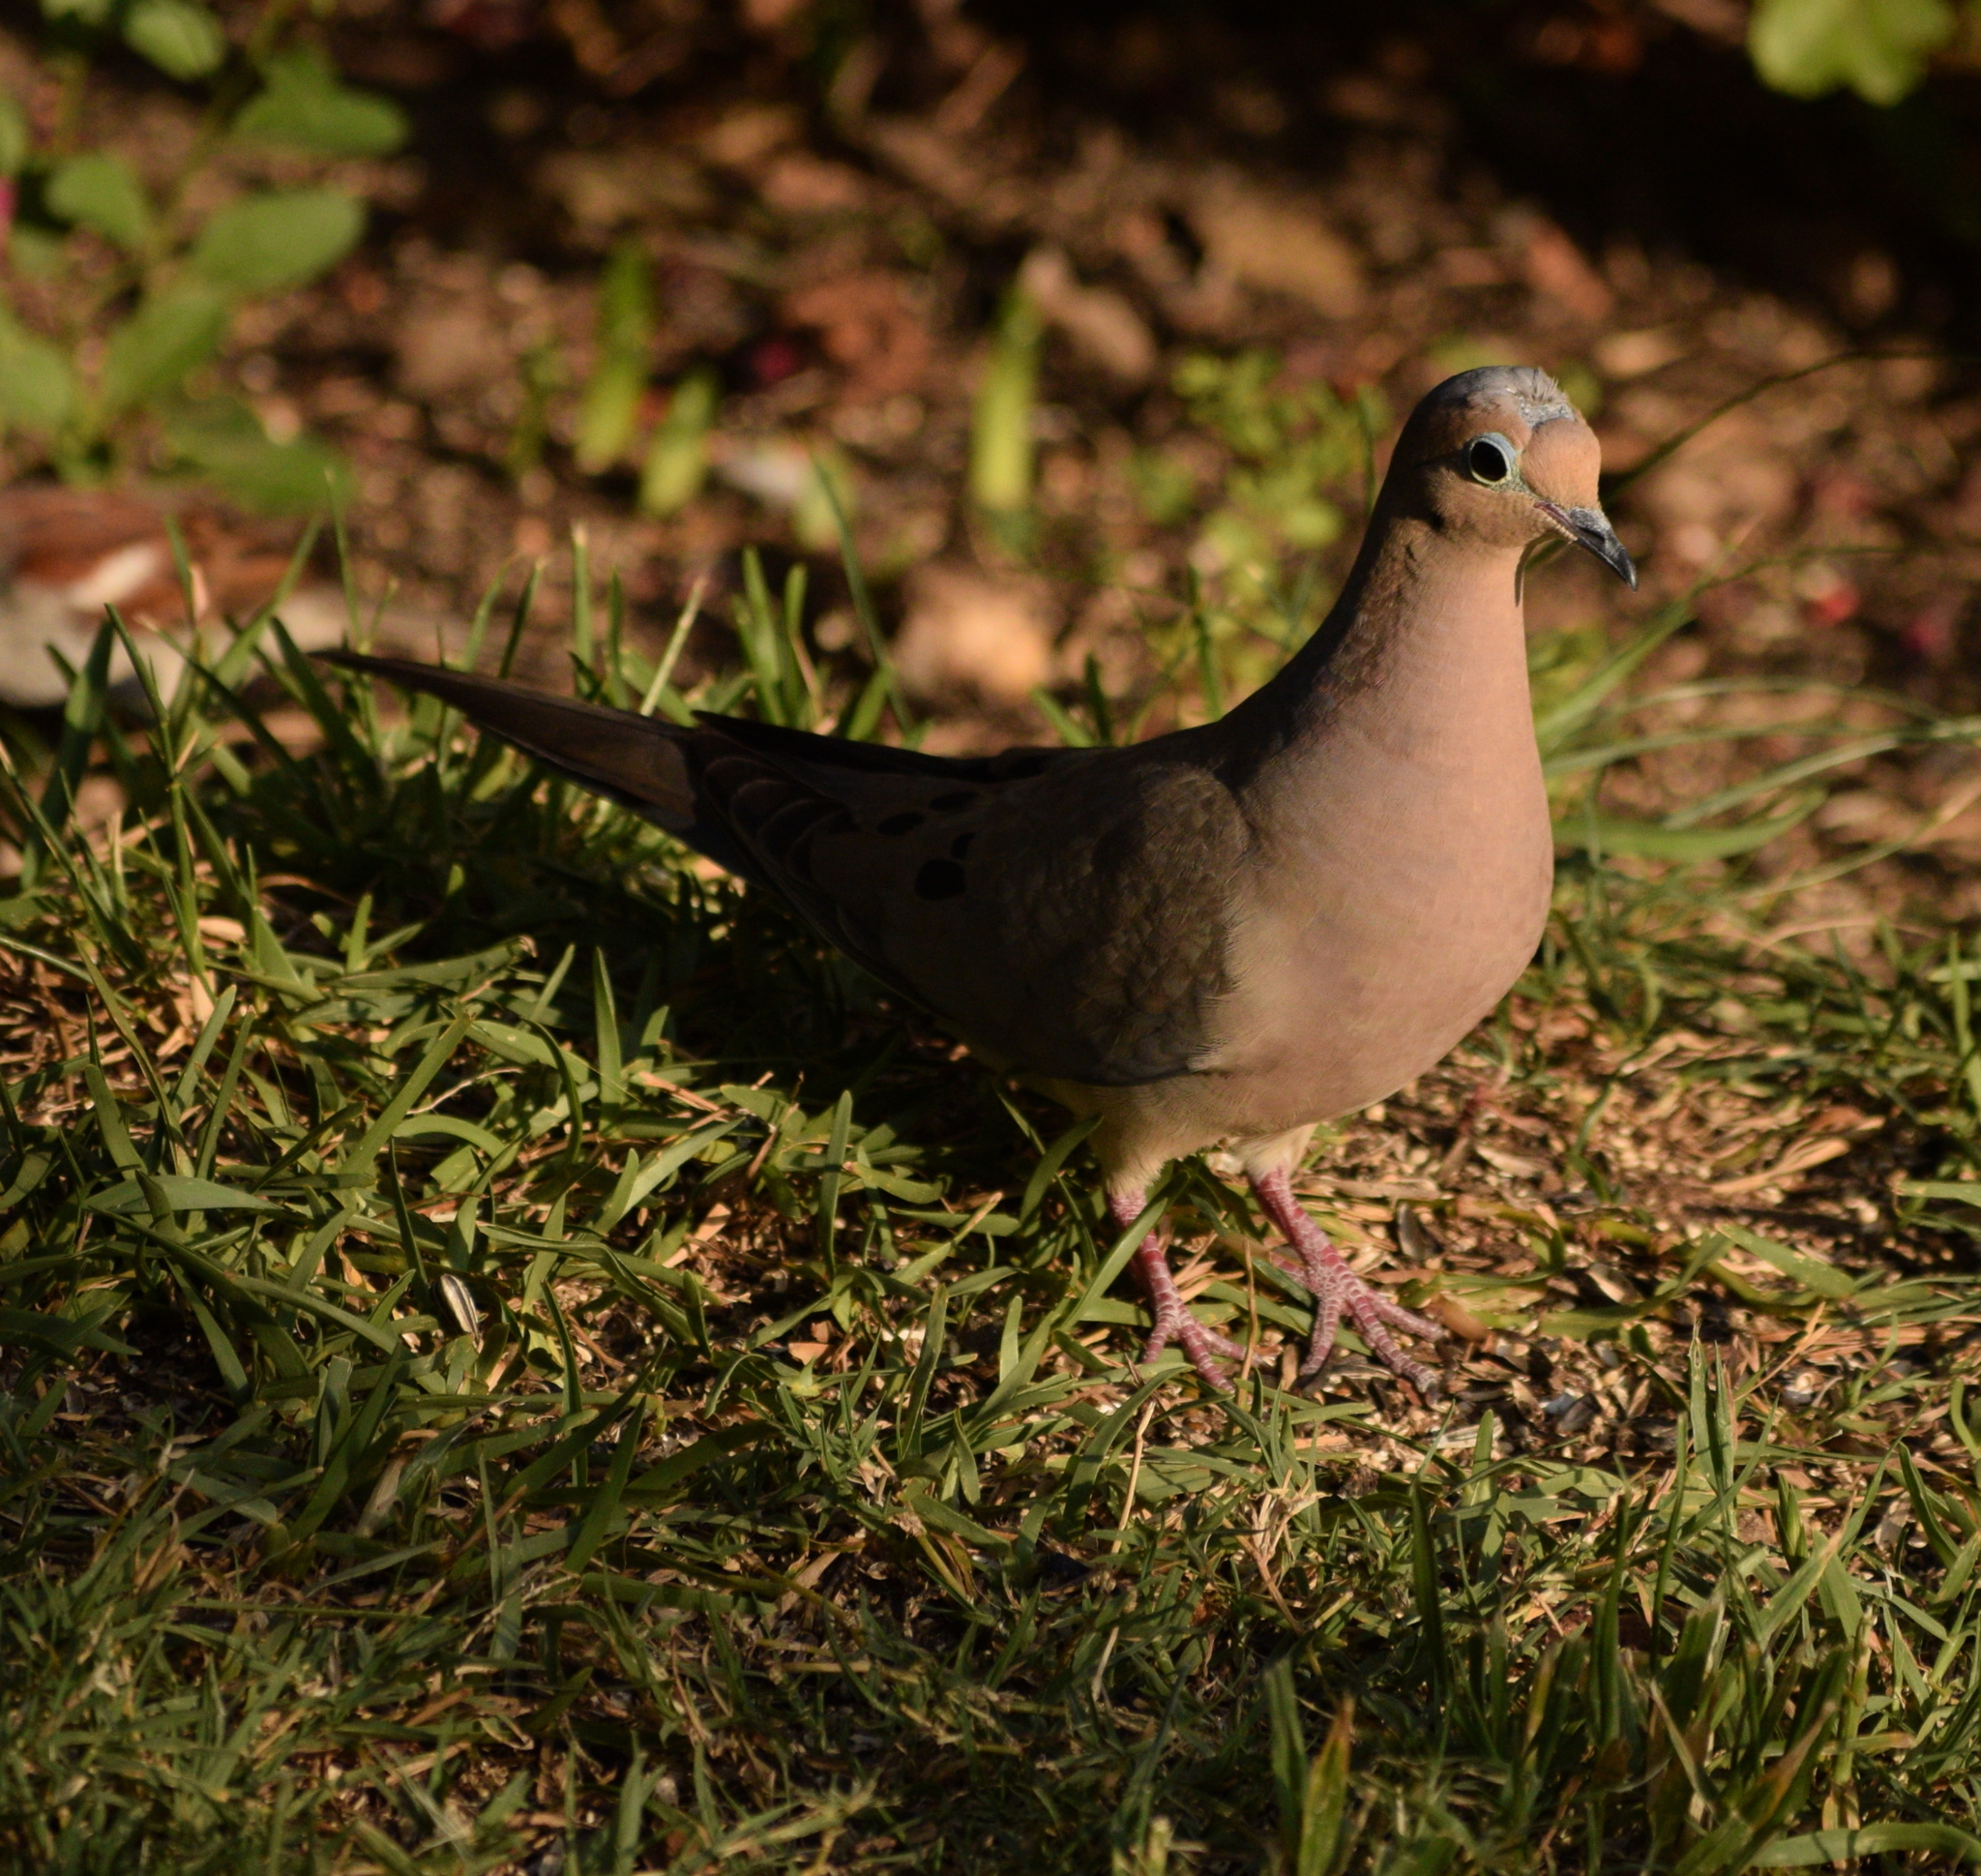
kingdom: Animalia
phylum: Chordata
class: Aves
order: Columbiformes
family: Columbidae
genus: Zenaida
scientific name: Zenaida macroura
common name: Mourning dove
